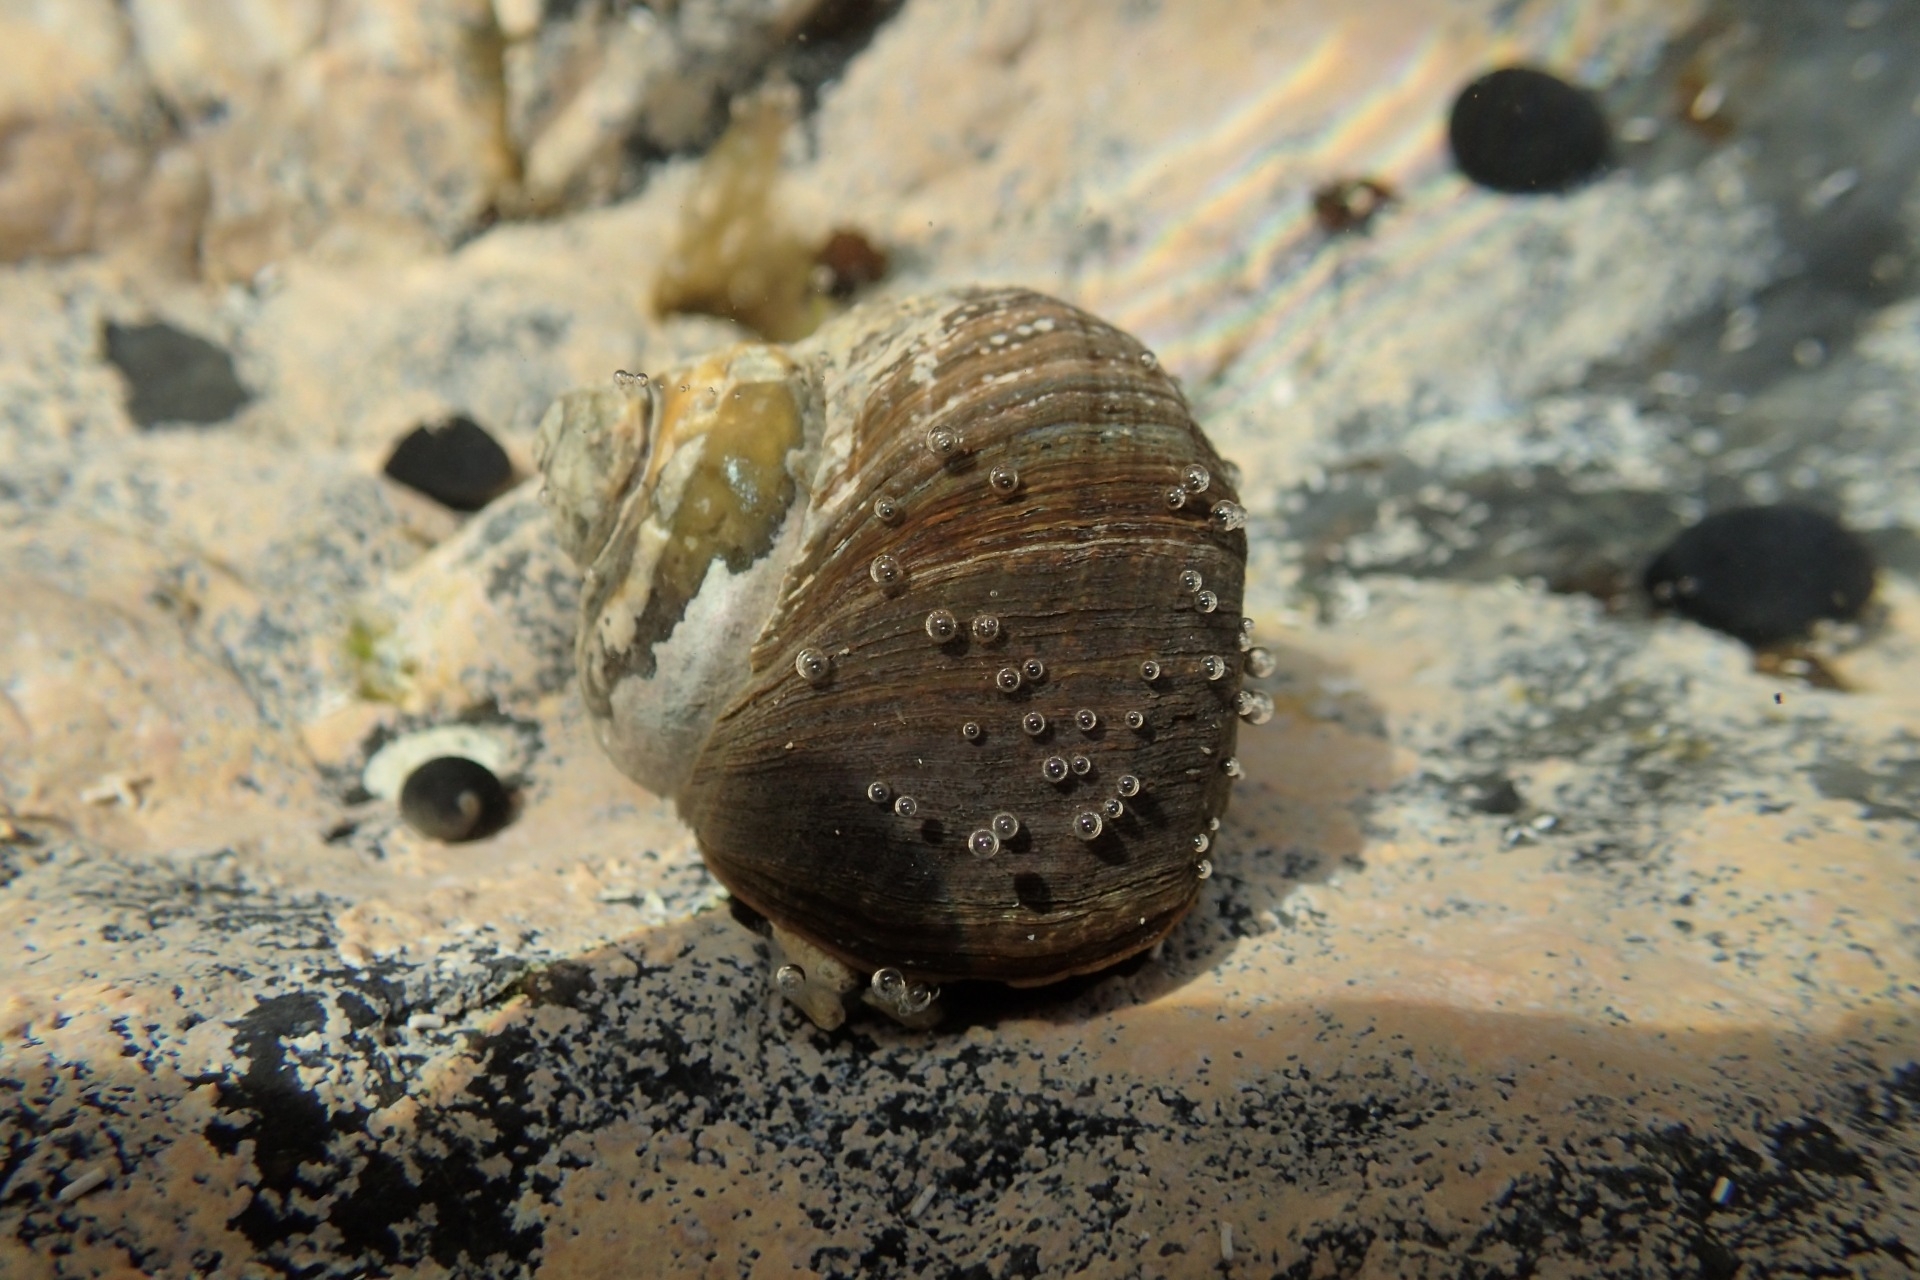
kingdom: Animalia
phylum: Mollusca
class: Gastropoda
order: Trochida
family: Turbinidae
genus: Lunella
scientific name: Lunella smaragda
